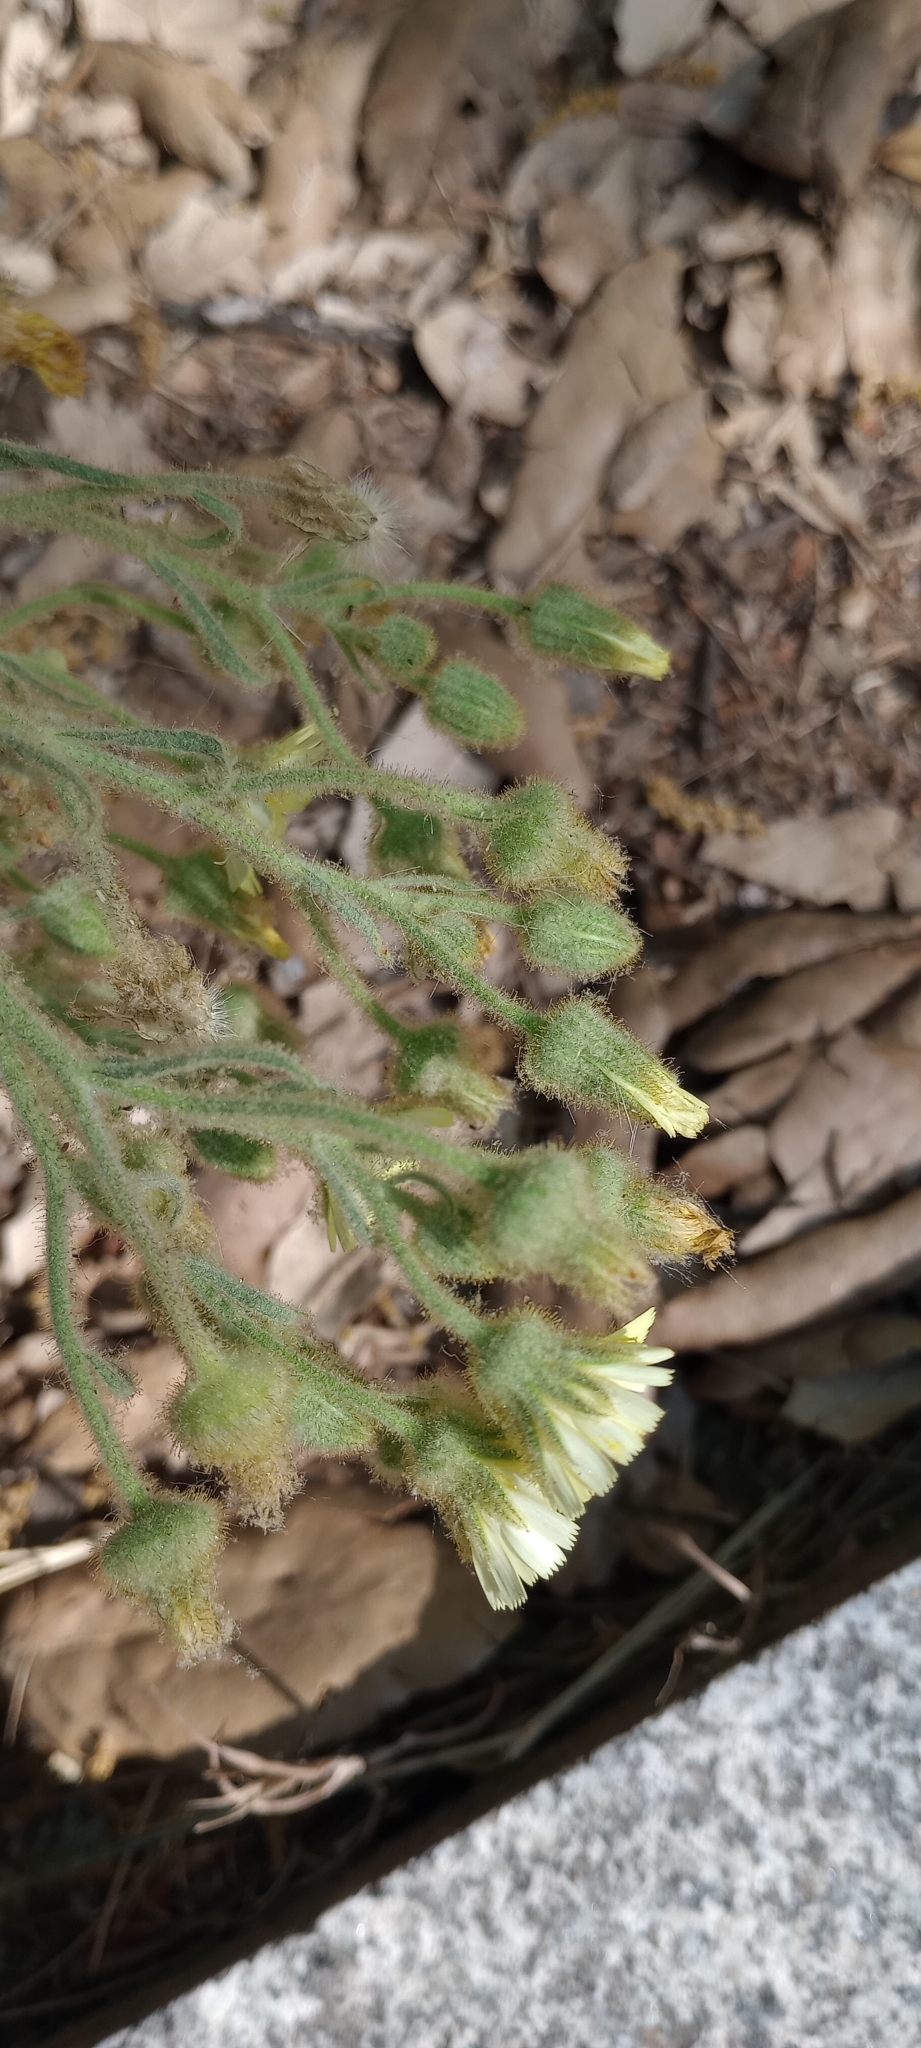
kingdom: Plantae
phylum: Tracheophyta
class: Magnoliopsida
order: Asterales
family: Asteraceae
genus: Andryala
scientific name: Andryala integrifolia
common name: Common andryala
